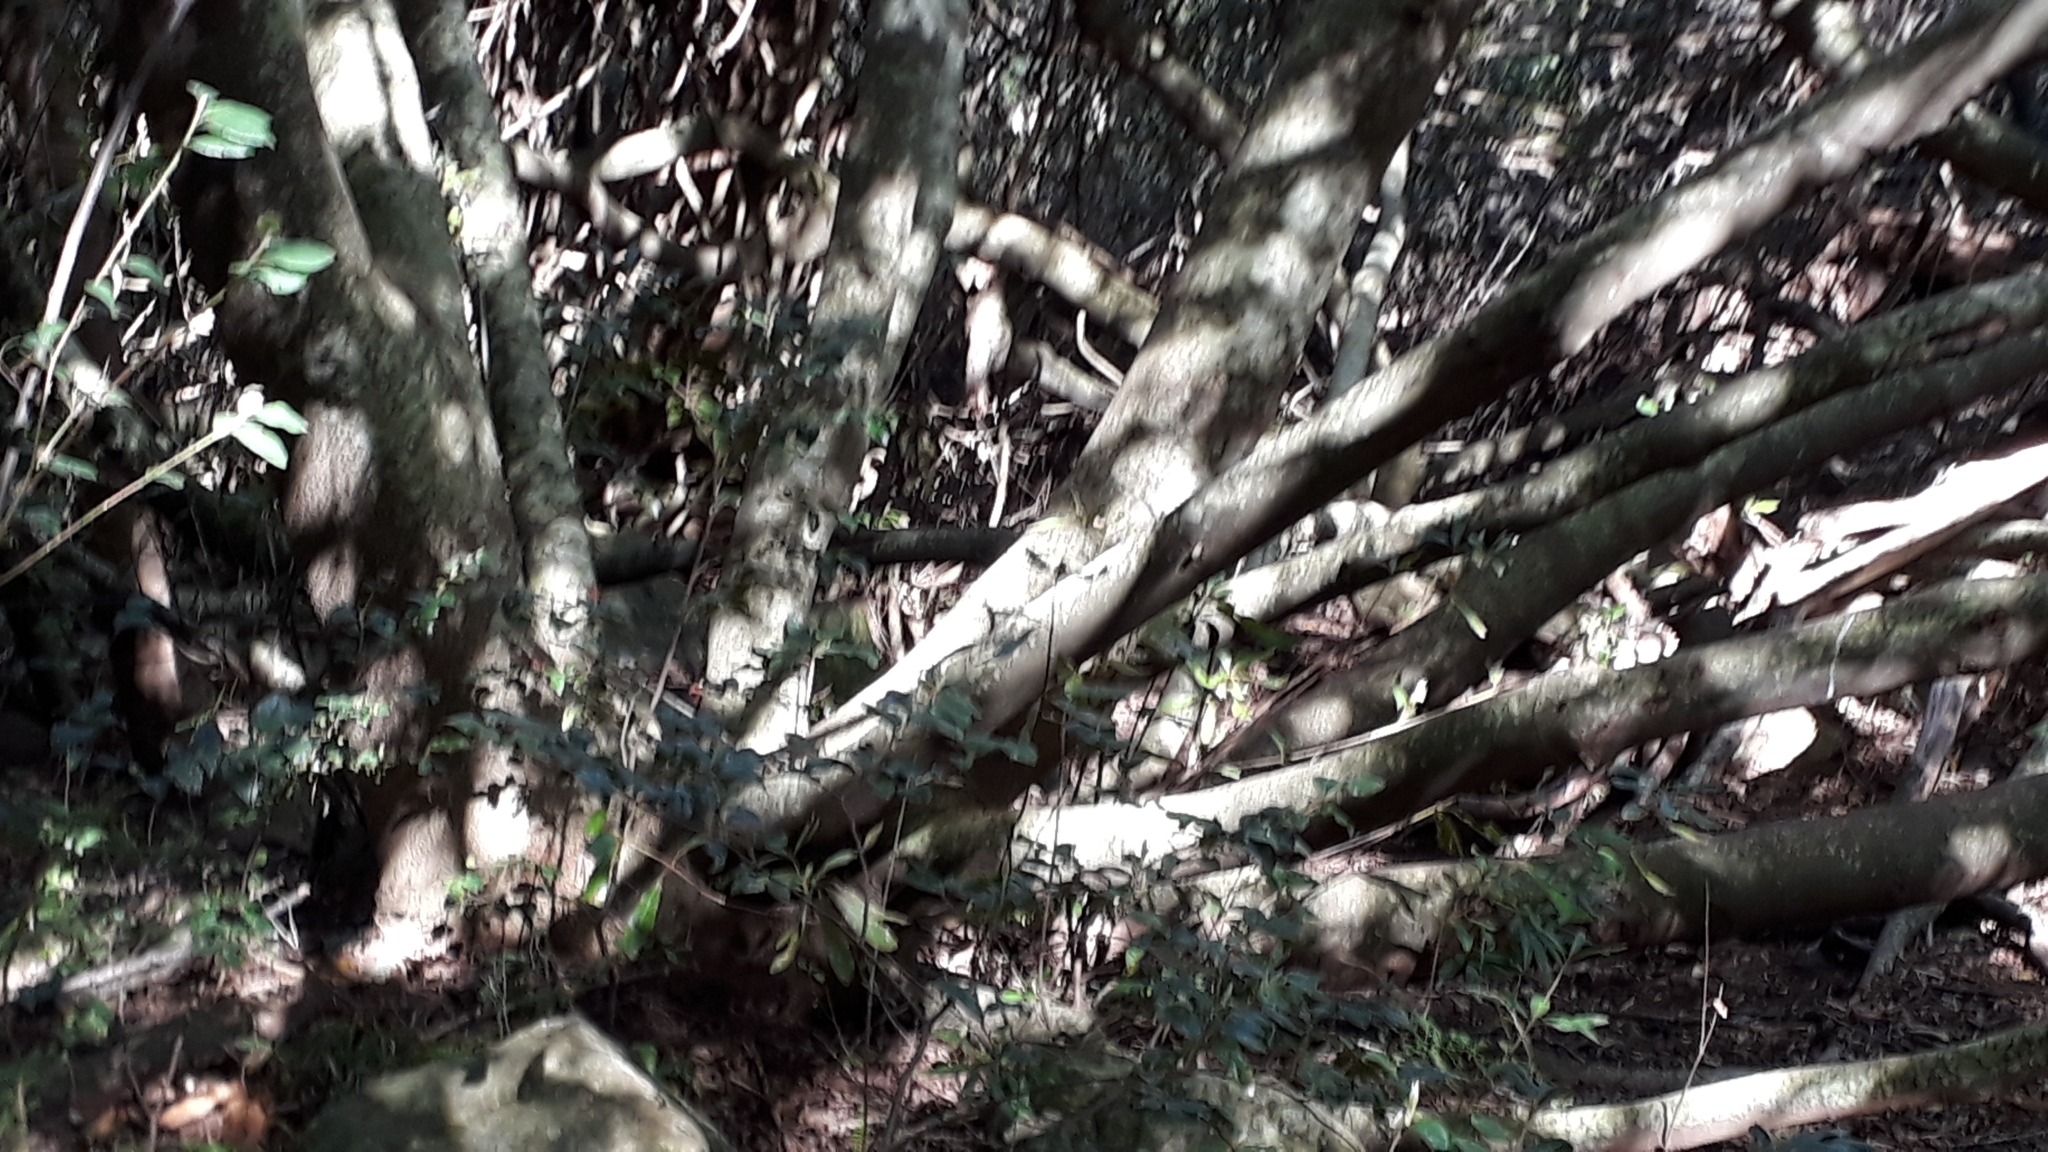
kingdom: Plantae
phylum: Tracheophyta
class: Magnoliopsida
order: Proteales
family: Proteaceae
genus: Brabejum
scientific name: Brabejum stellatifolium
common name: Wild almond
